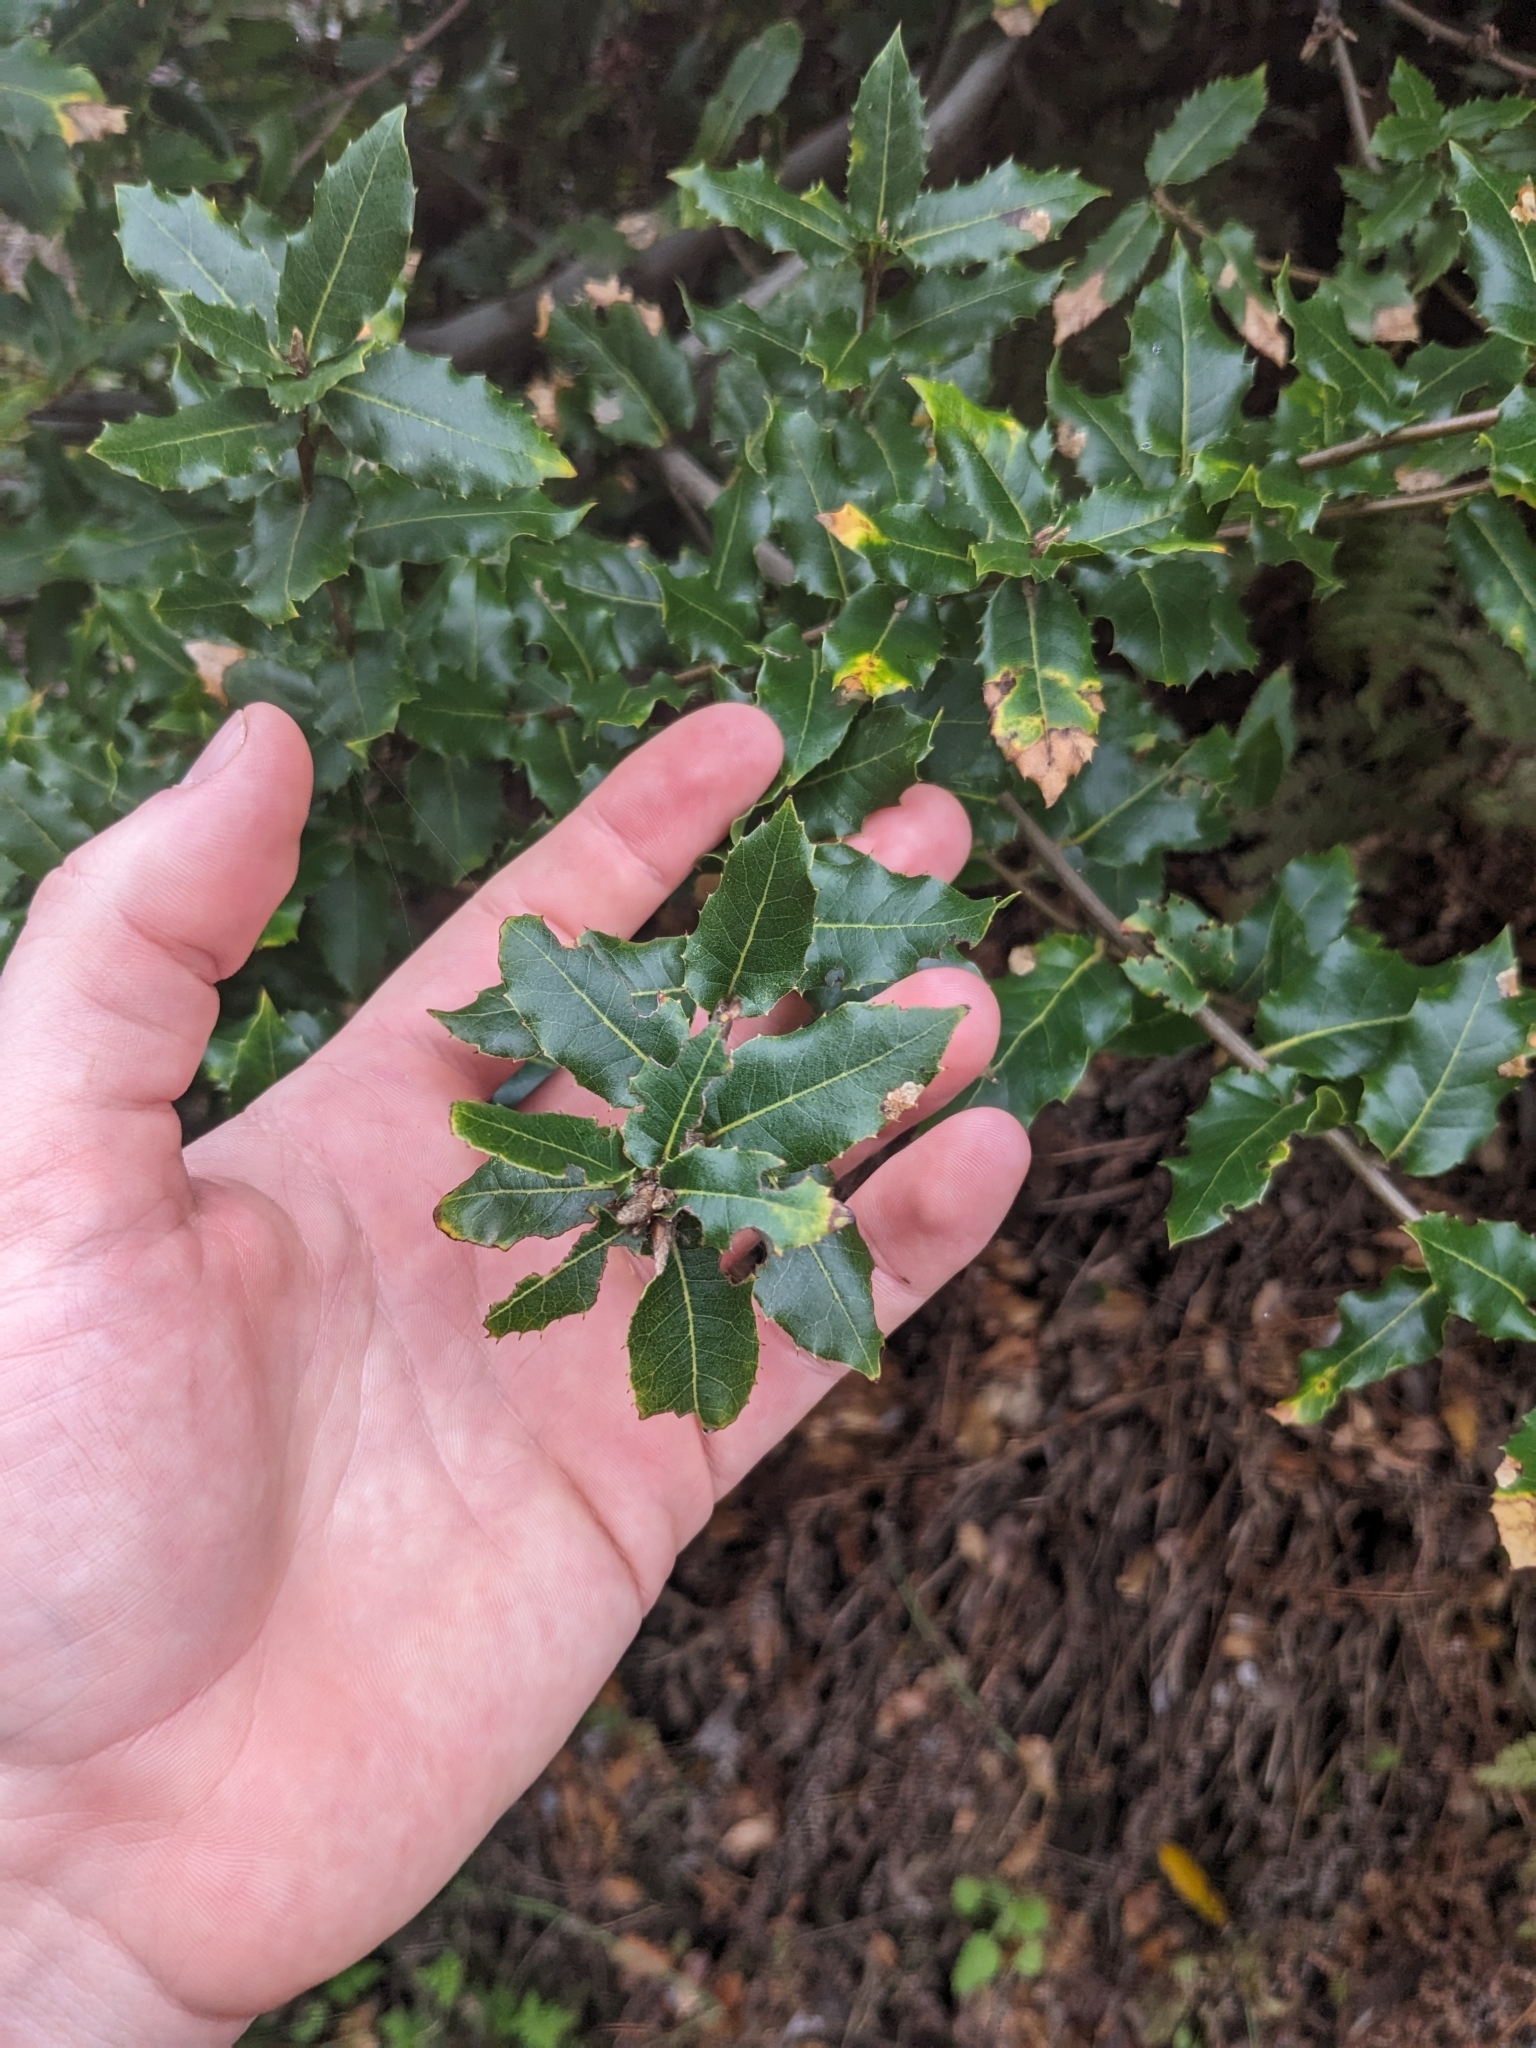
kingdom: Plantae
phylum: Tracheophyta
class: Magnoliopsida
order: Fagales
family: Fagaceae
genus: Quercus
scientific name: Quercus parvula
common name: Santa cruz island oak
